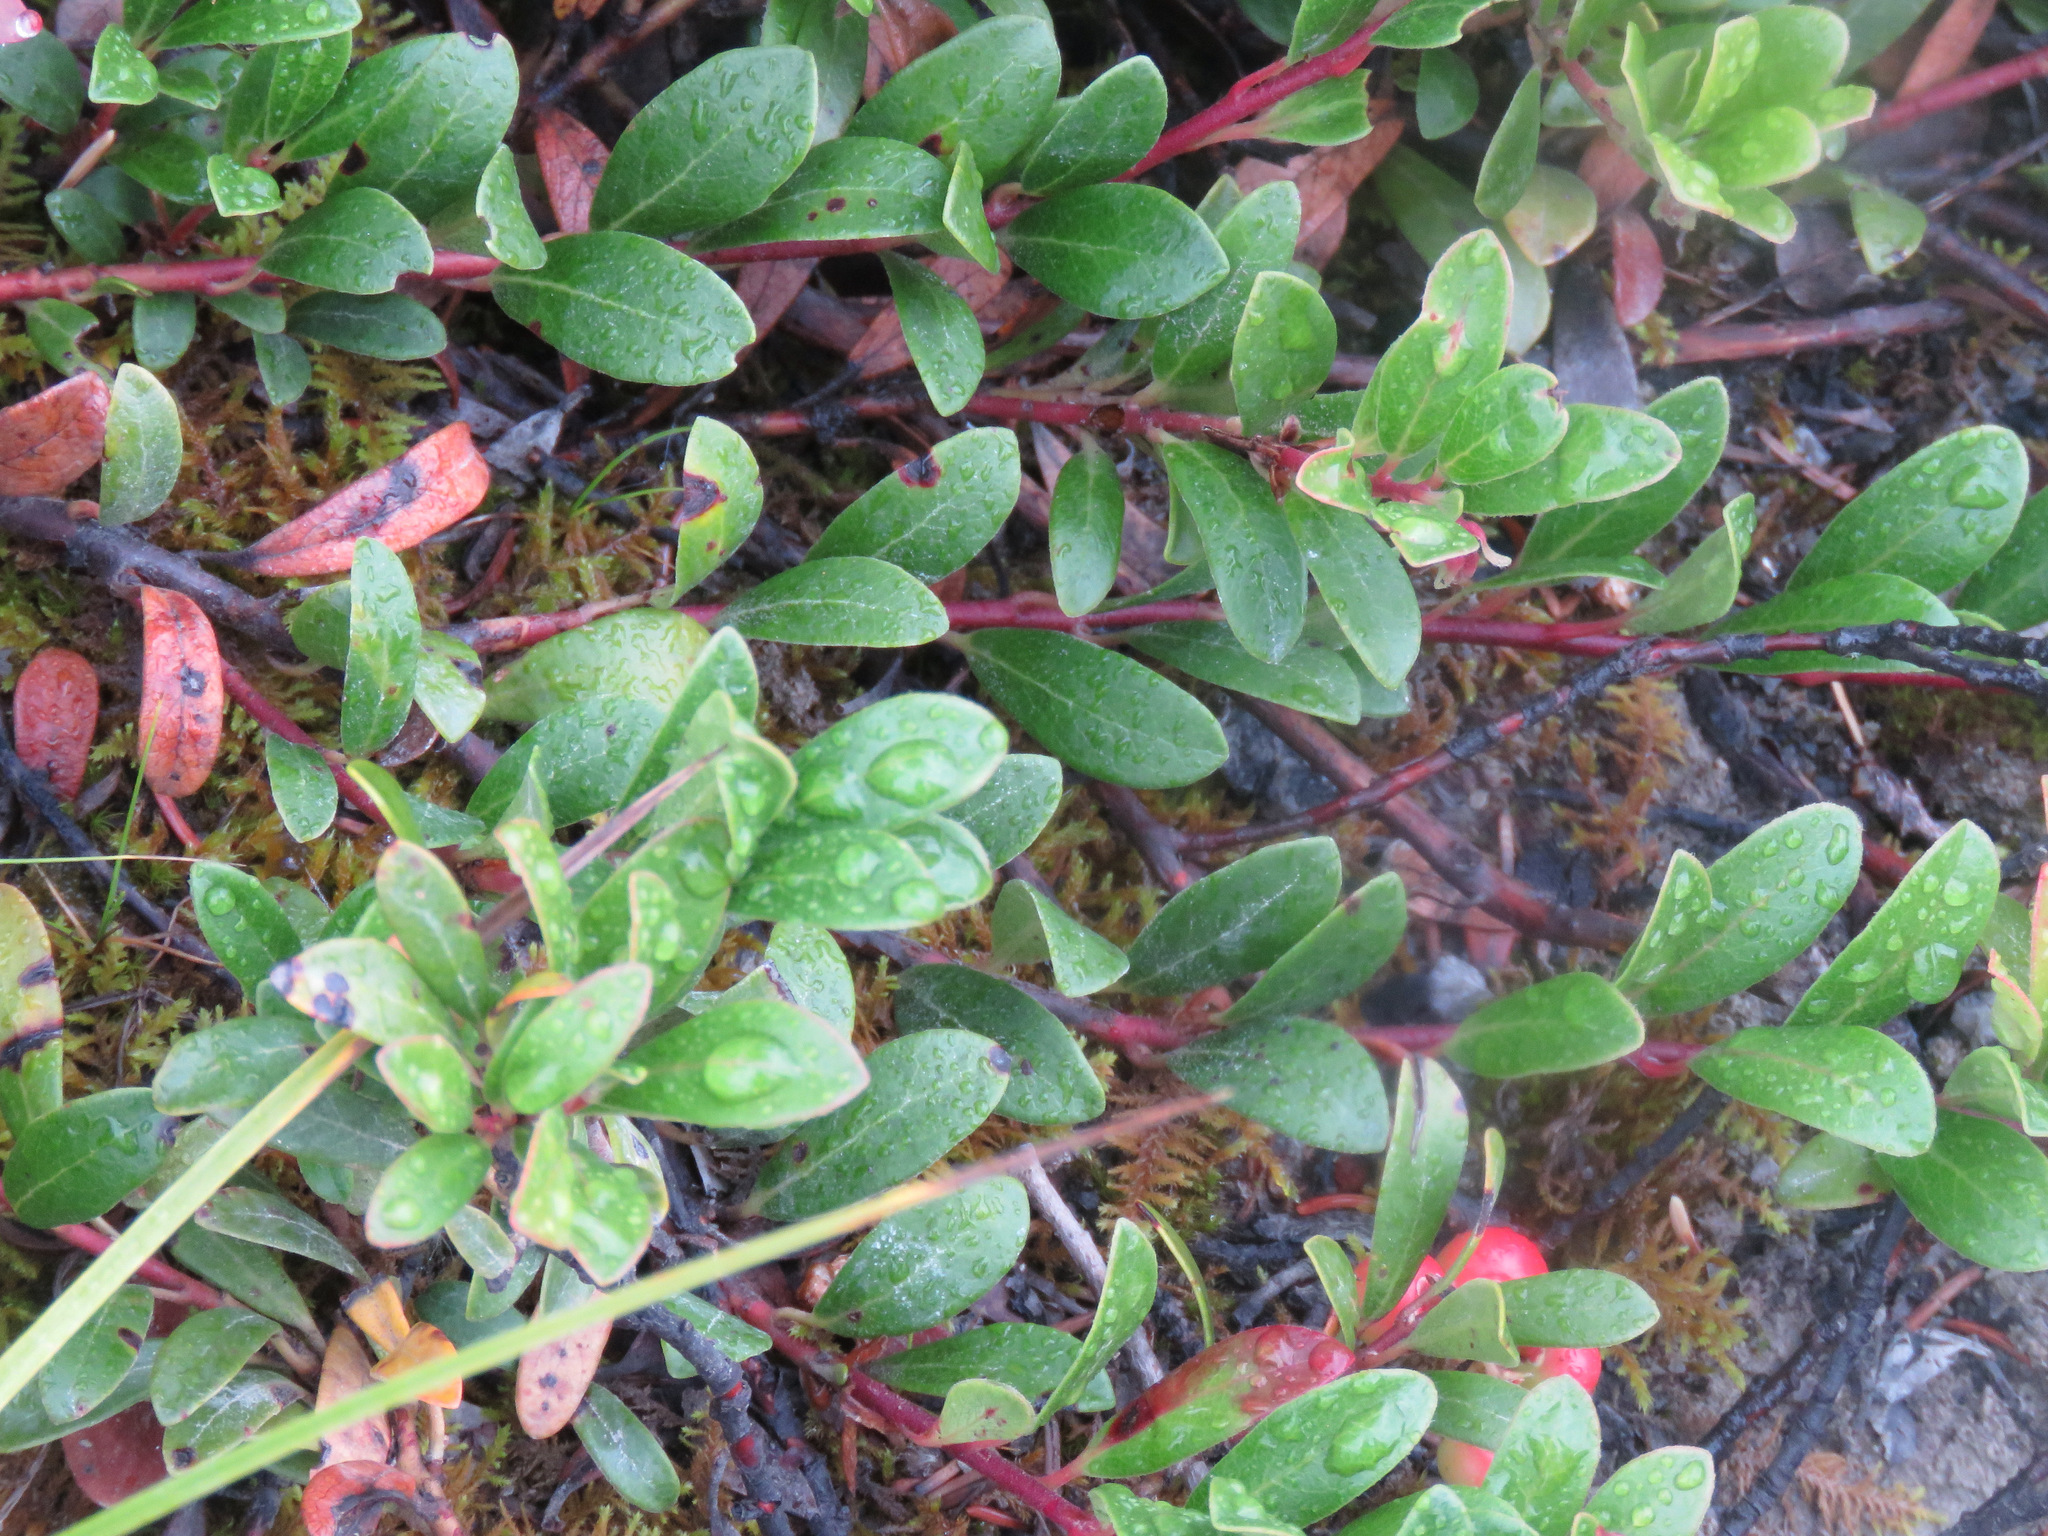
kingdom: Plantae
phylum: Tracheophyta
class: Magnoliopsida
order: Ericales
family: Ericaceae
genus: Arctostaphylos
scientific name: Arctostaphylos uva-ursi
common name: Bearberry
